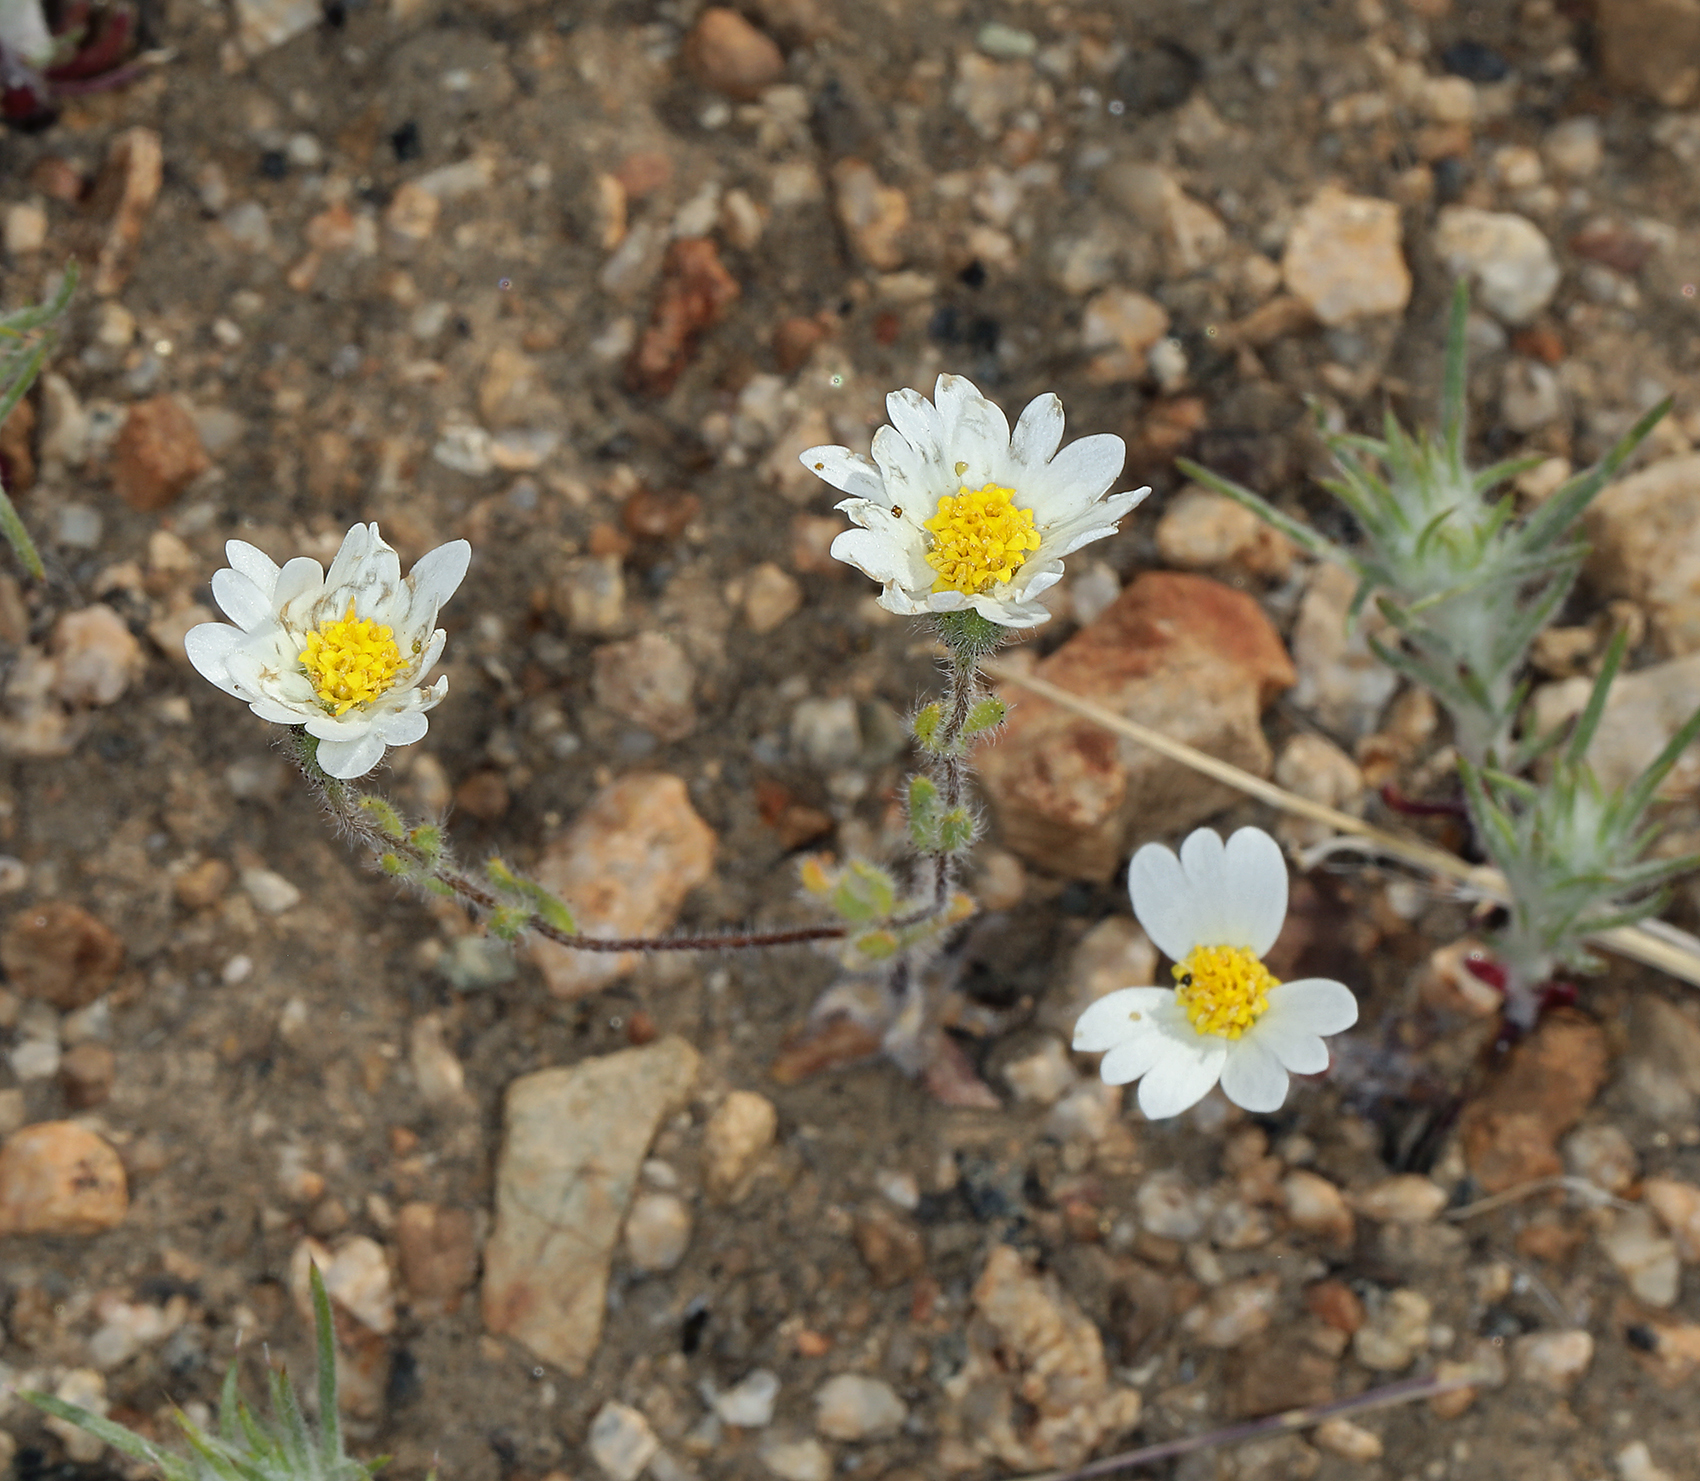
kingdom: Plantae
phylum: Tracheophyta
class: Magnoliopsida
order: Asterales
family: Asteraceae
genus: Layia
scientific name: Layia glandulosa
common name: White layia
